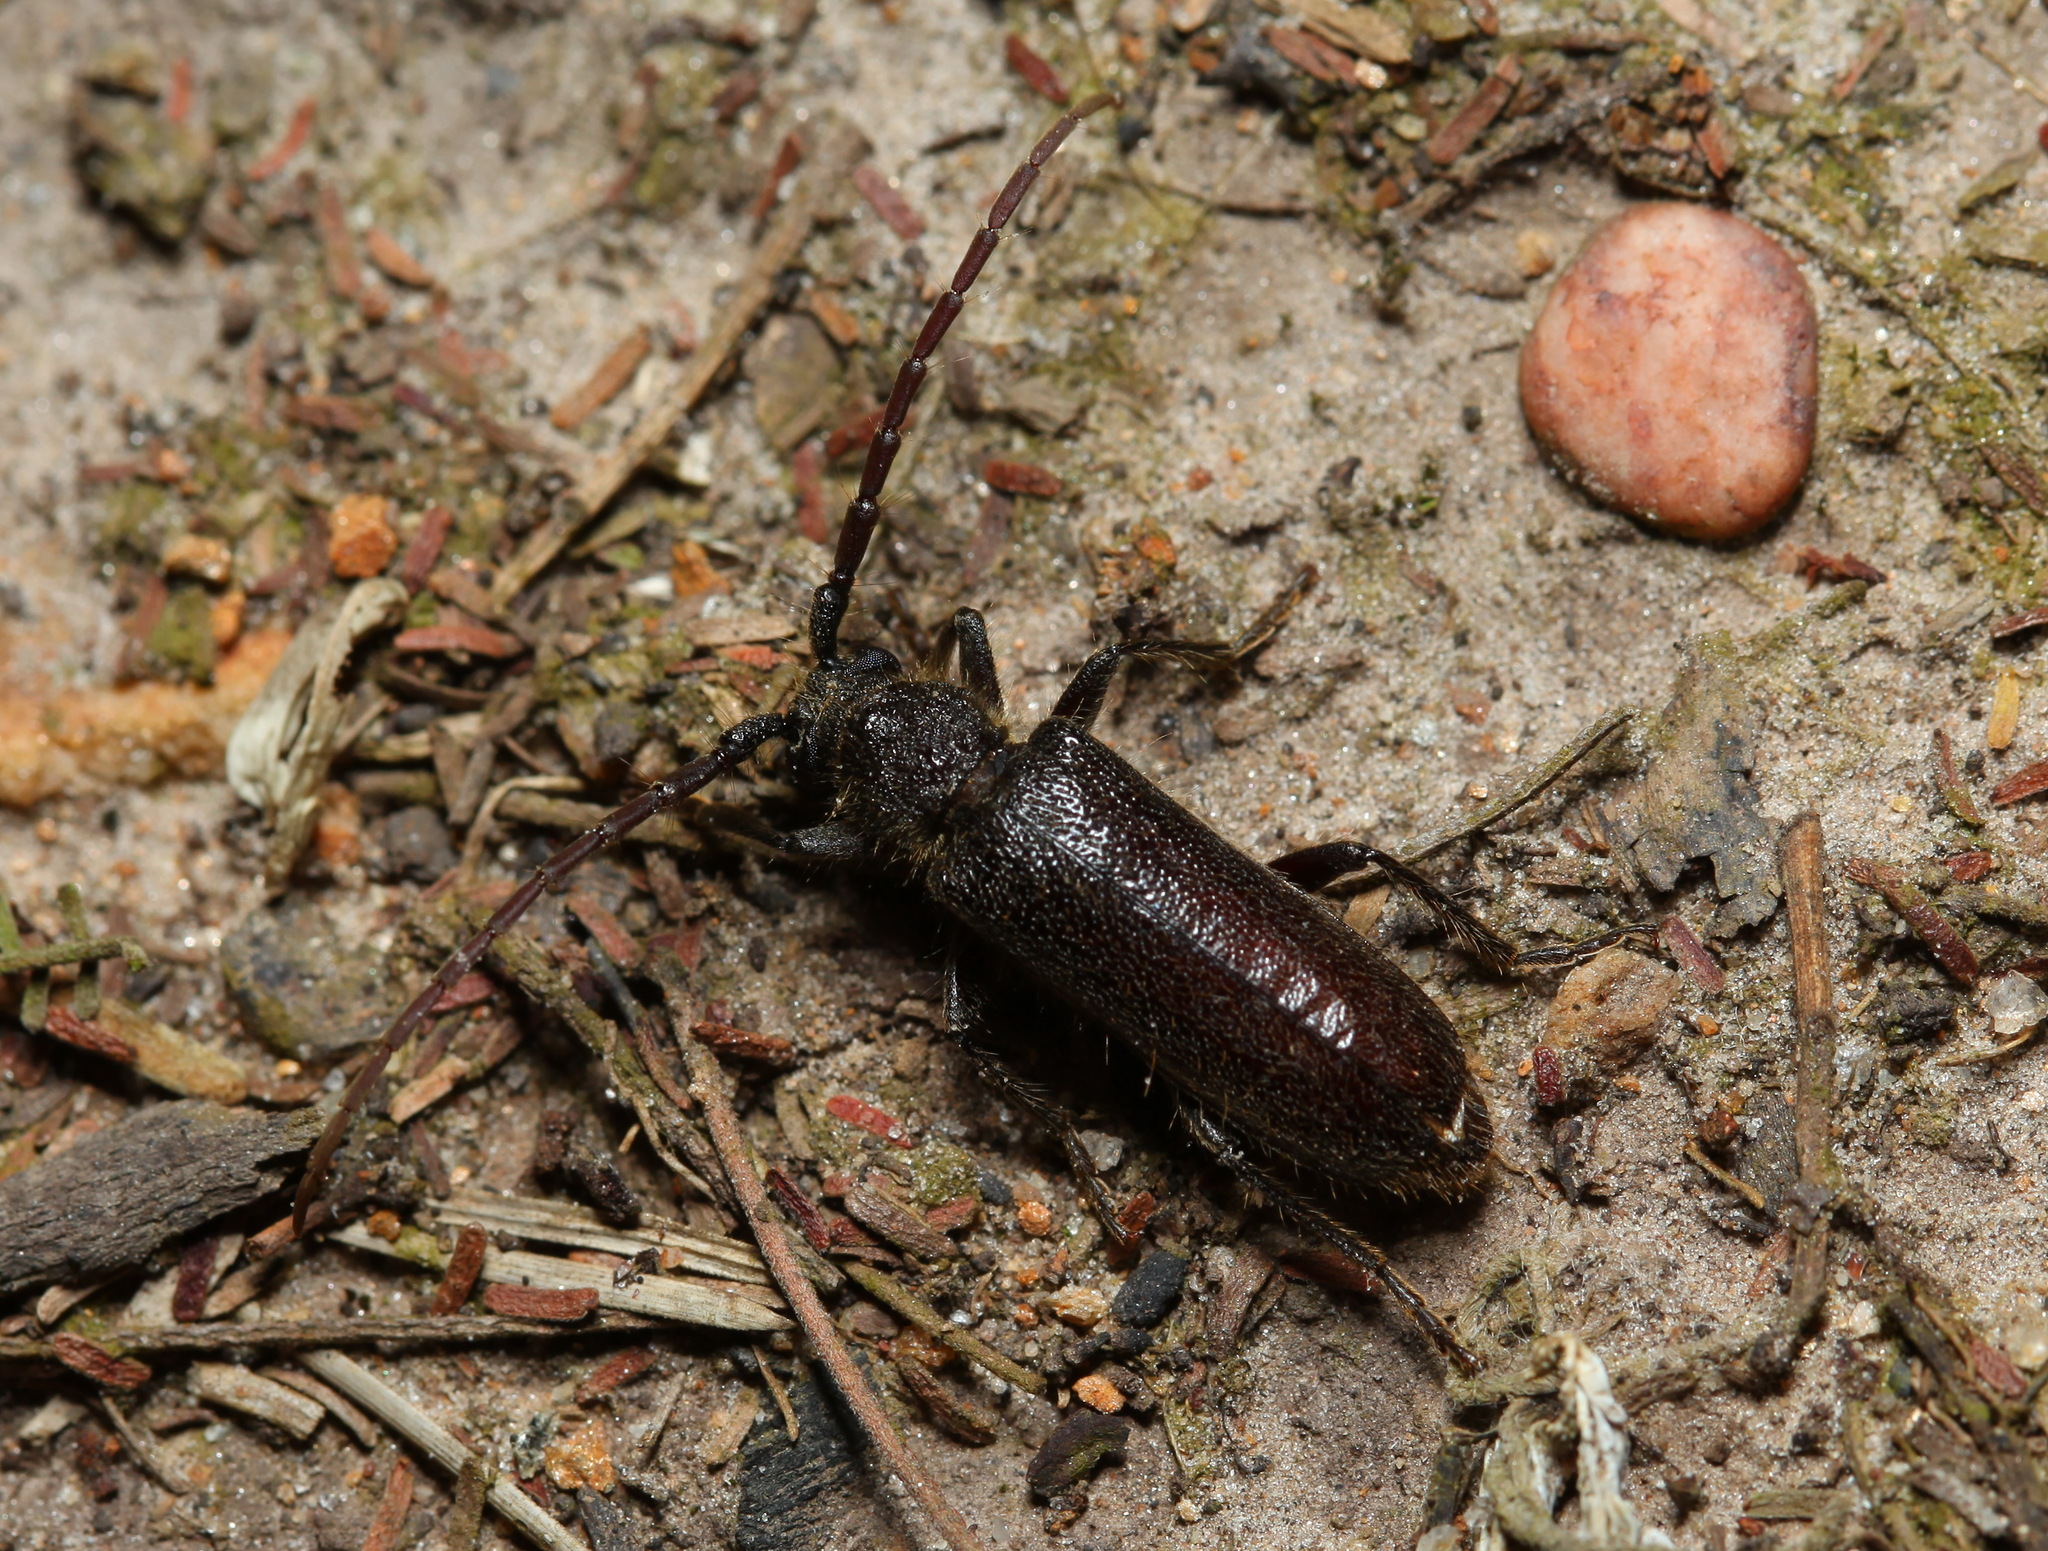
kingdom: Animalia
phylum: Arthropoda
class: Insecta
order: Coleoptera
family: Cerambycidae
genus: Crinarnoldius
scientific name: Crinarnoldius xavieri
